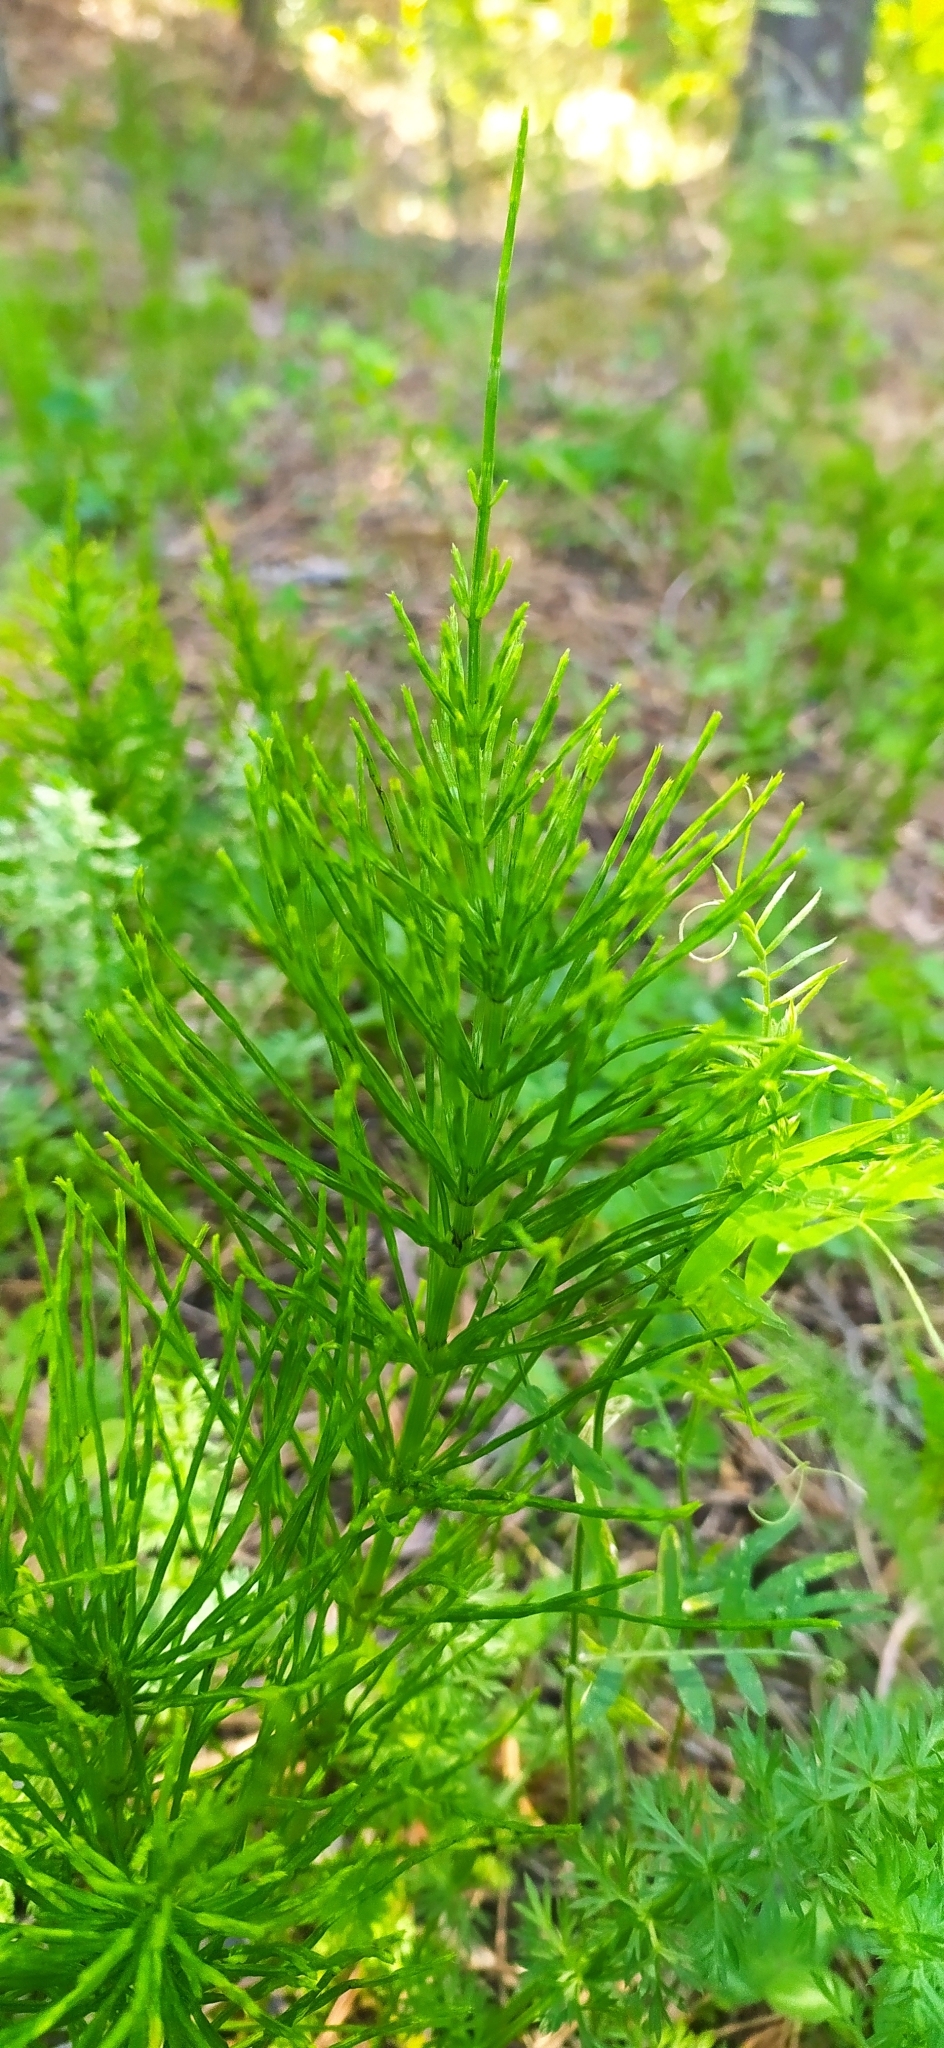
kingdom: Plantae
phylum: Tracheophyta
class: Polypodiopsida
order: Equisetales
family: Equisetaceae
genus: Equisetum
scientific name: Equisetum arvense
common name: Field horsetail
